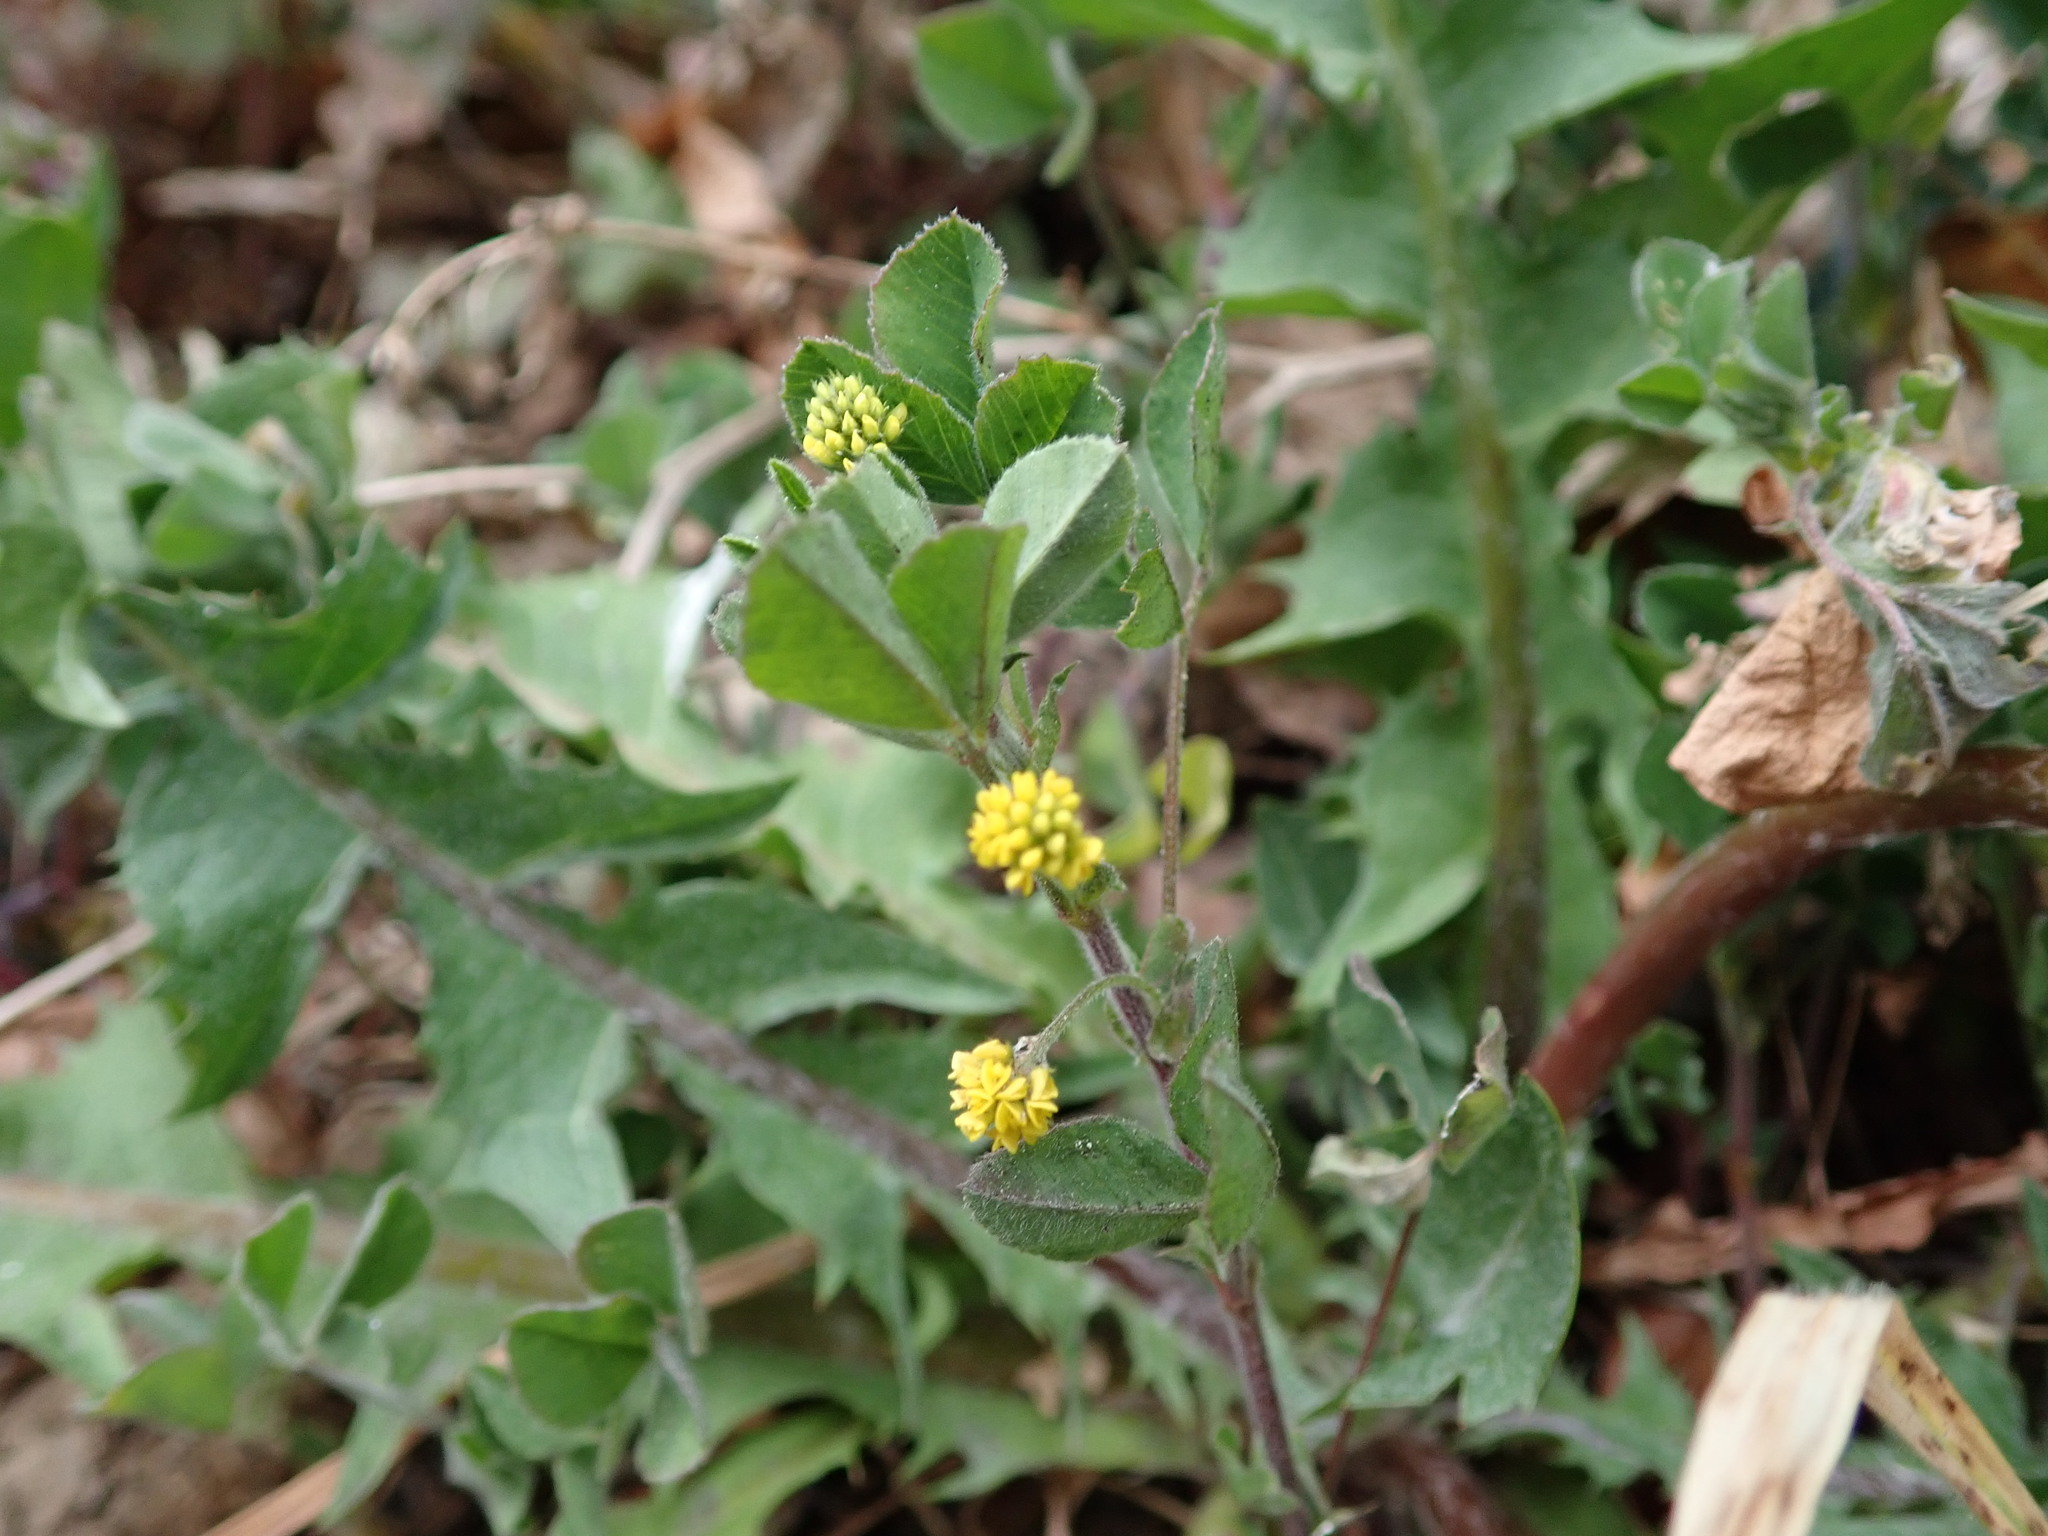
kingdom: Plantae
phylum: Tracheophyta
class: Magnoliopsida
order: Fabales
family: Fabaceae
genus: Medicago
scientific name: Medicago lupulina
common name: Black medick
